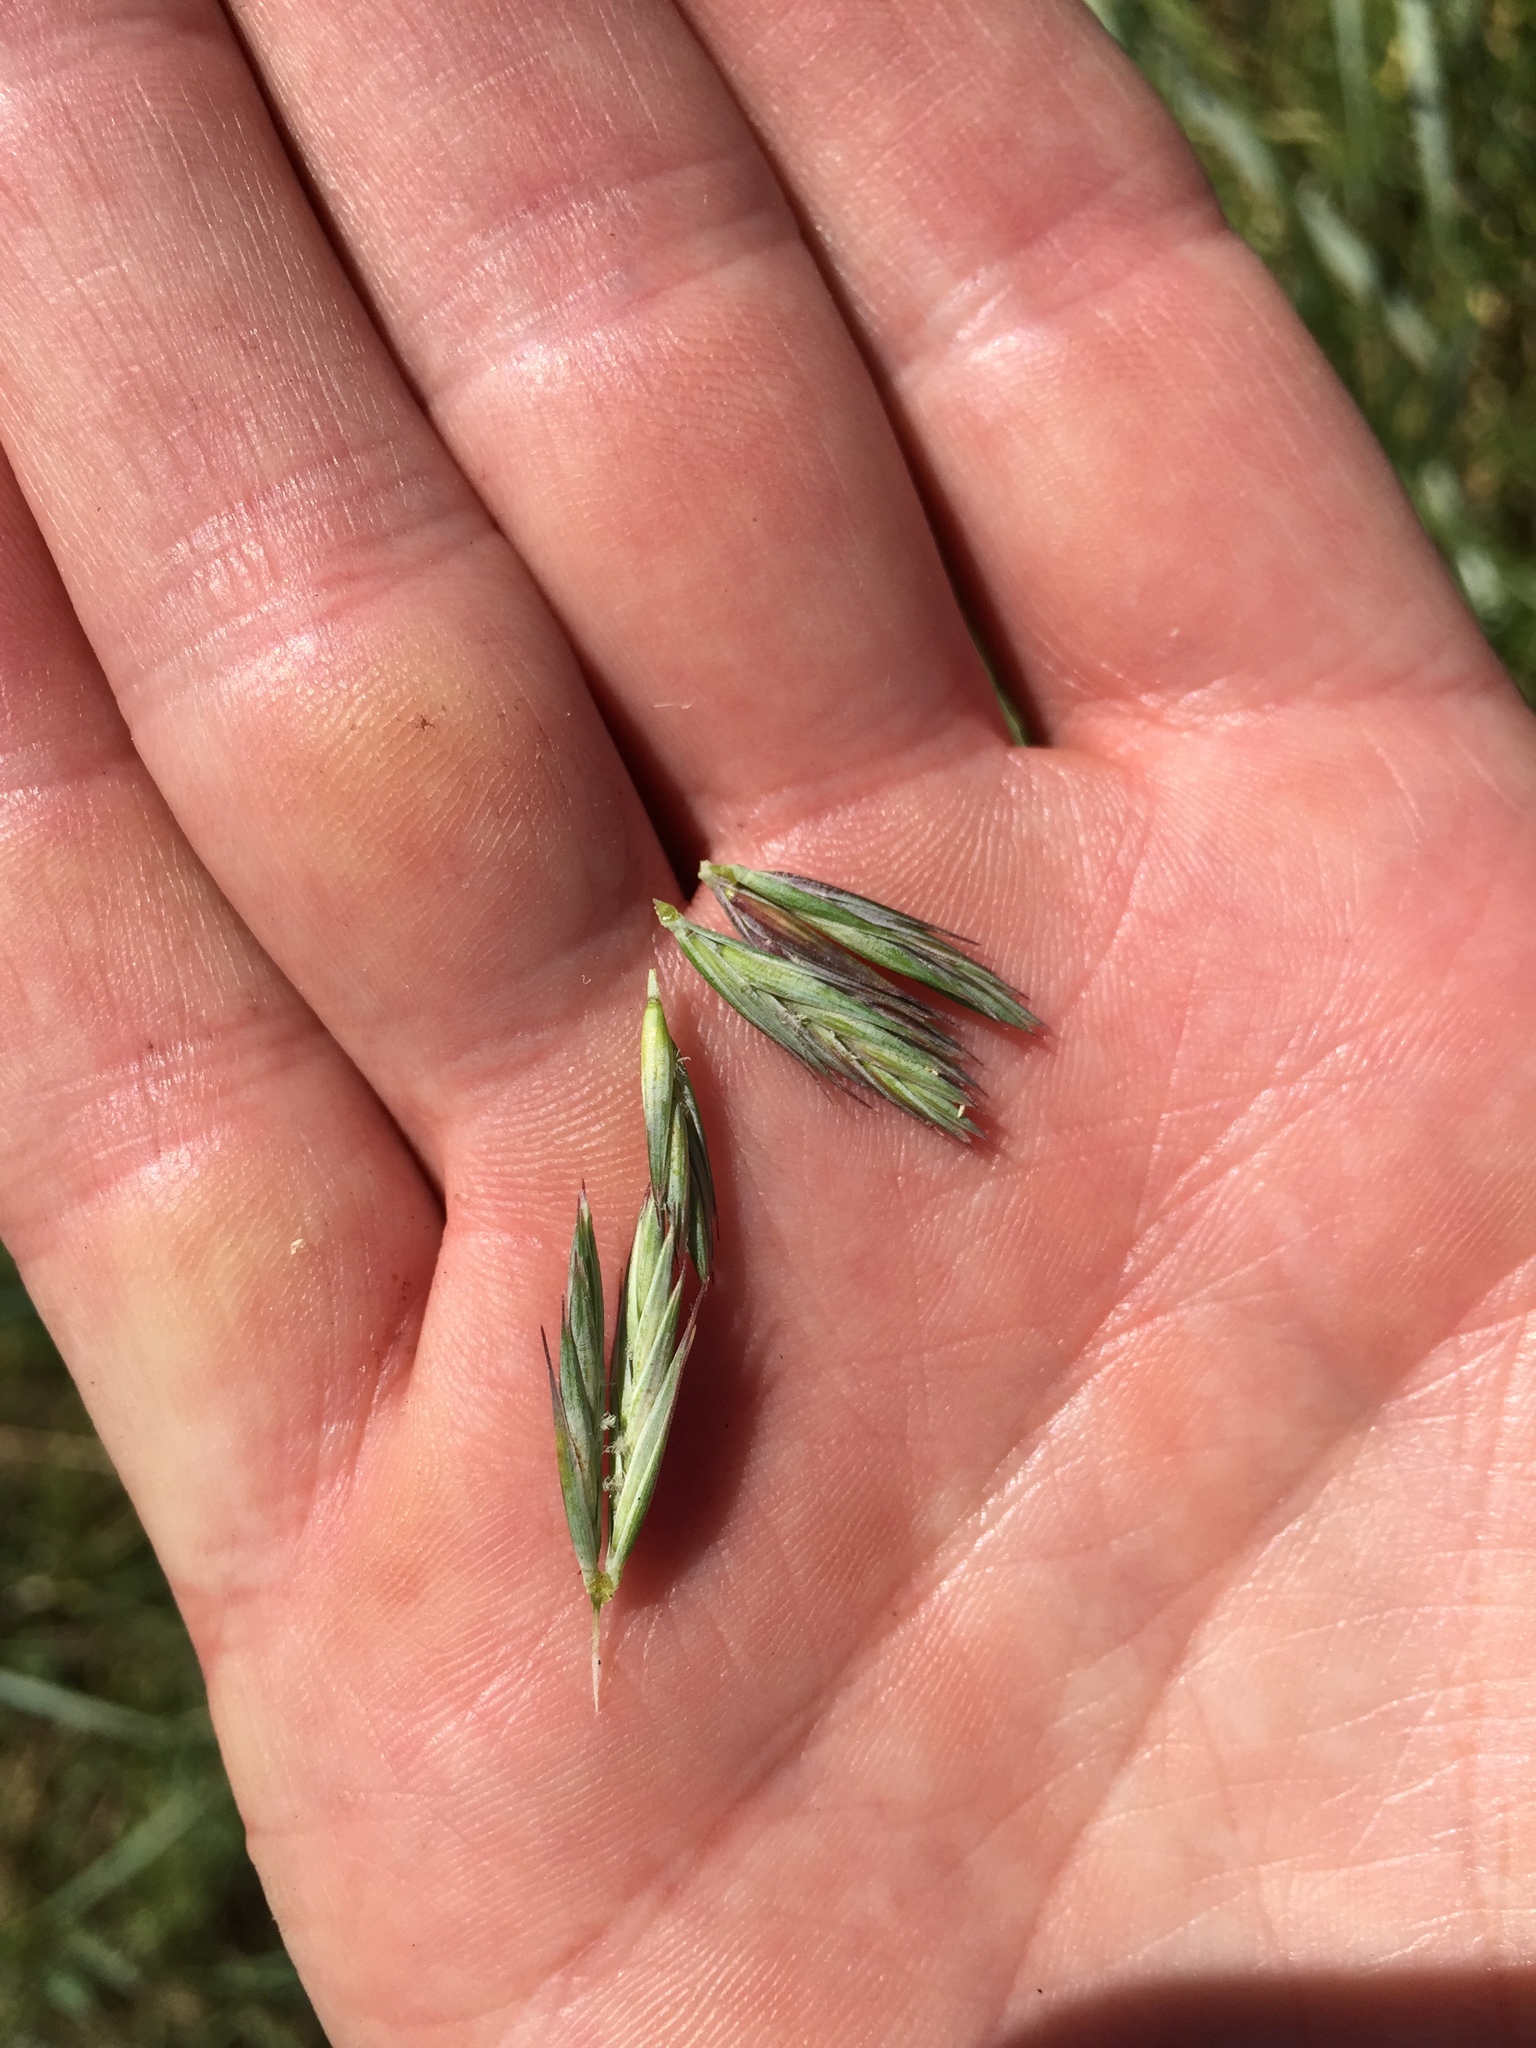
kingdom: Plantae
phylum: Tracheophyta
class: Liliopsida
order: Poales
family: Poaceae
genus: Leymus
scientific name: Leymus triticoides
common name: Beardless wild rye
